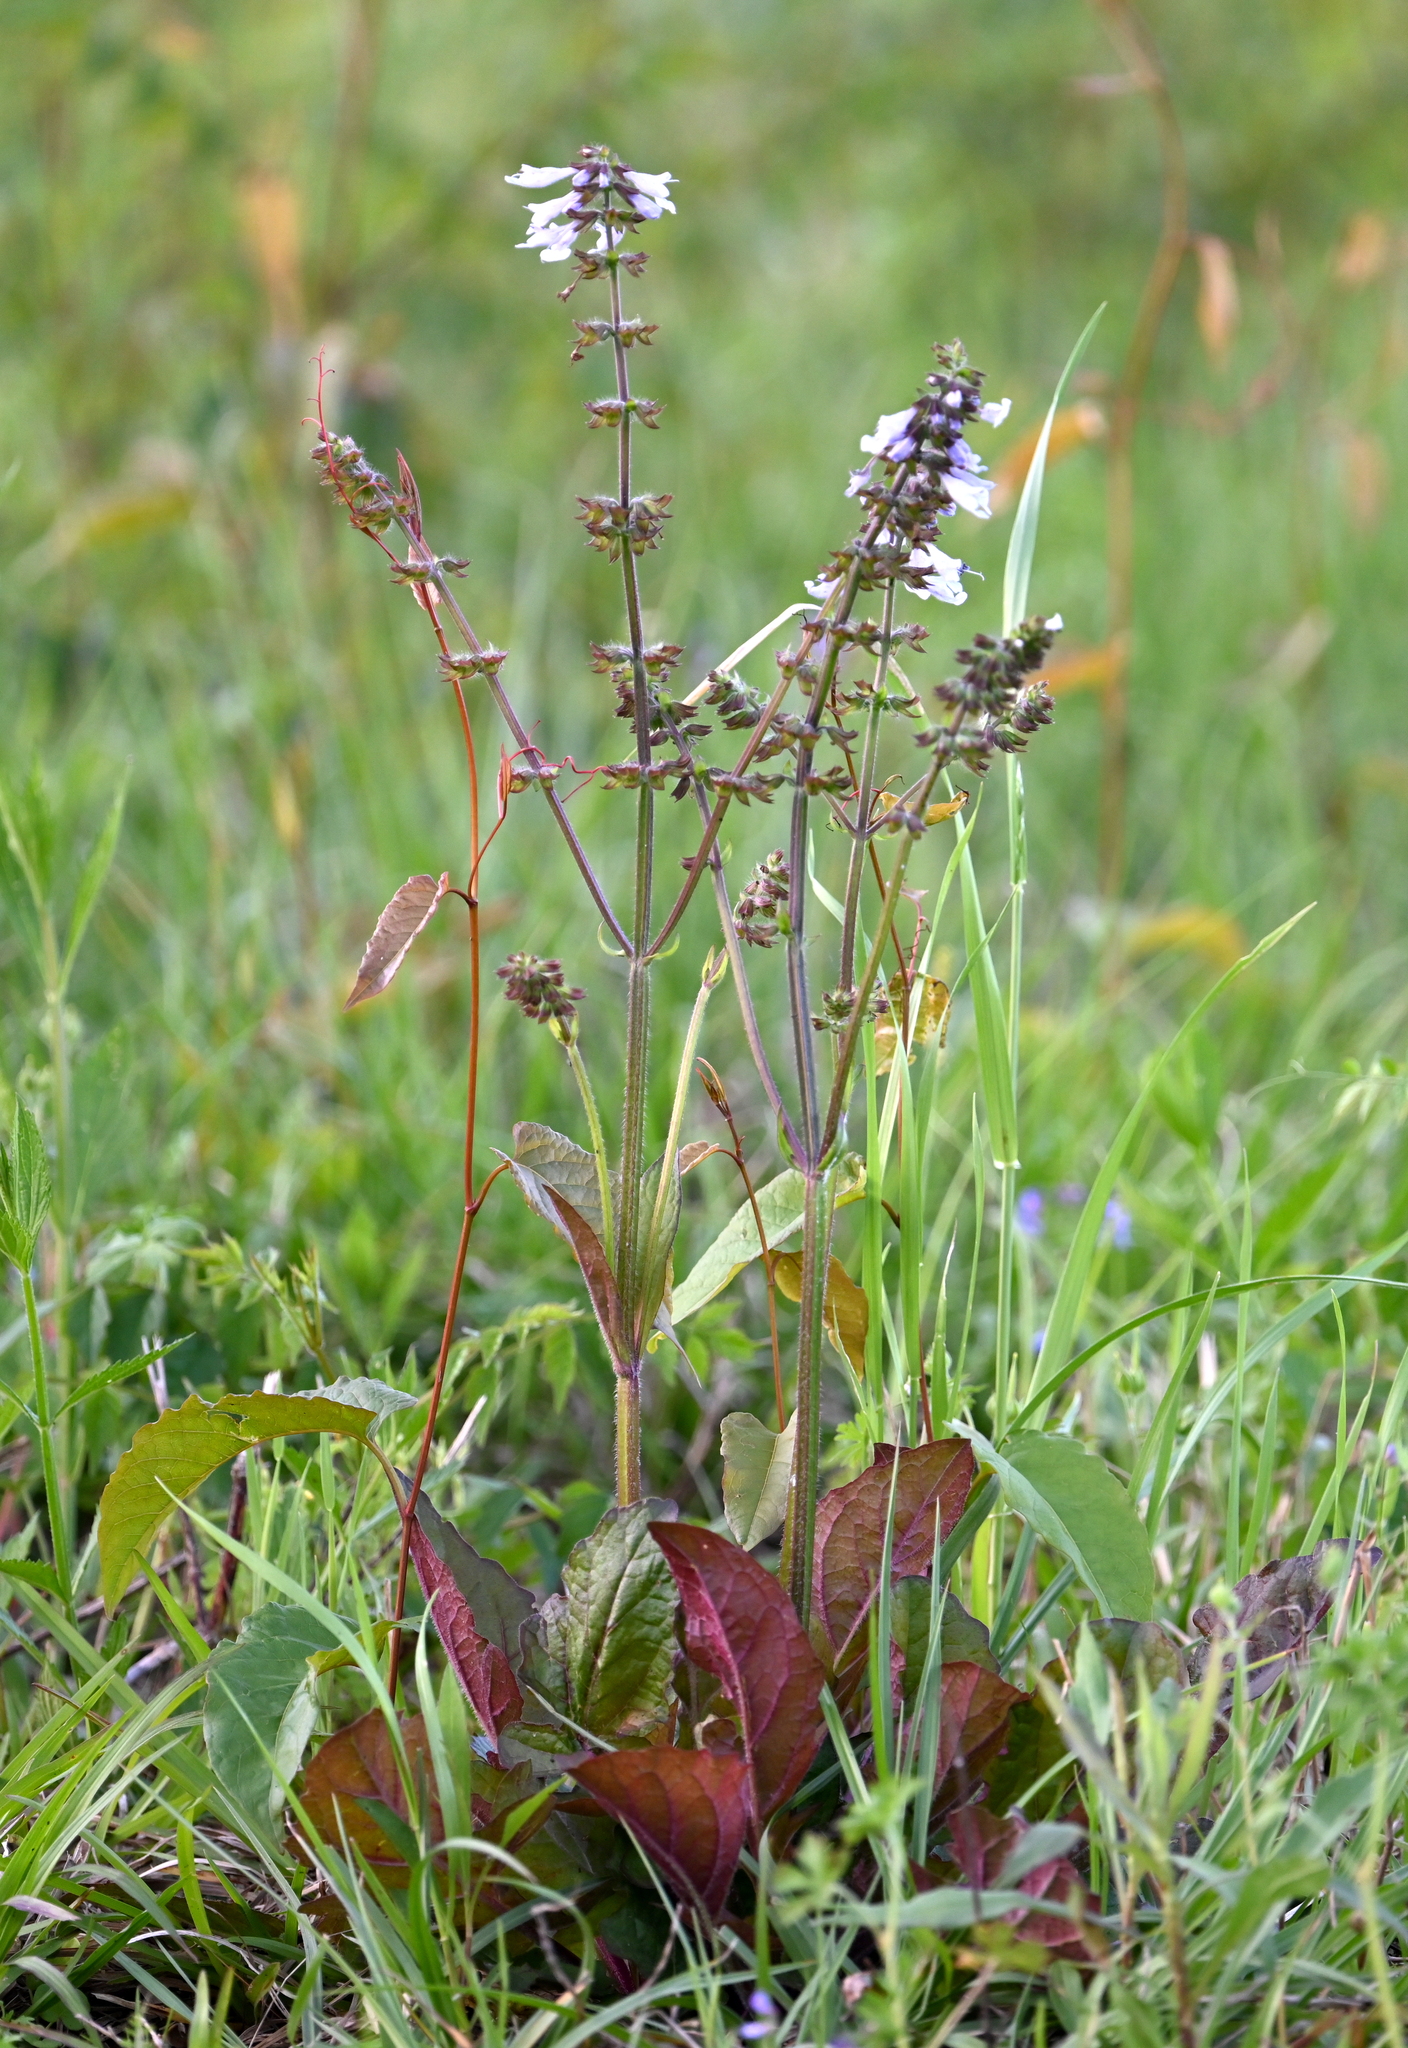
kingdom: Plantae
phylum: Tracheophyta
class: Magnoliopsida
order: Lamiales
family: Lamiaceae
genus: Salvia
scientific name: Salvia lyrata
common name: Cancerweed
